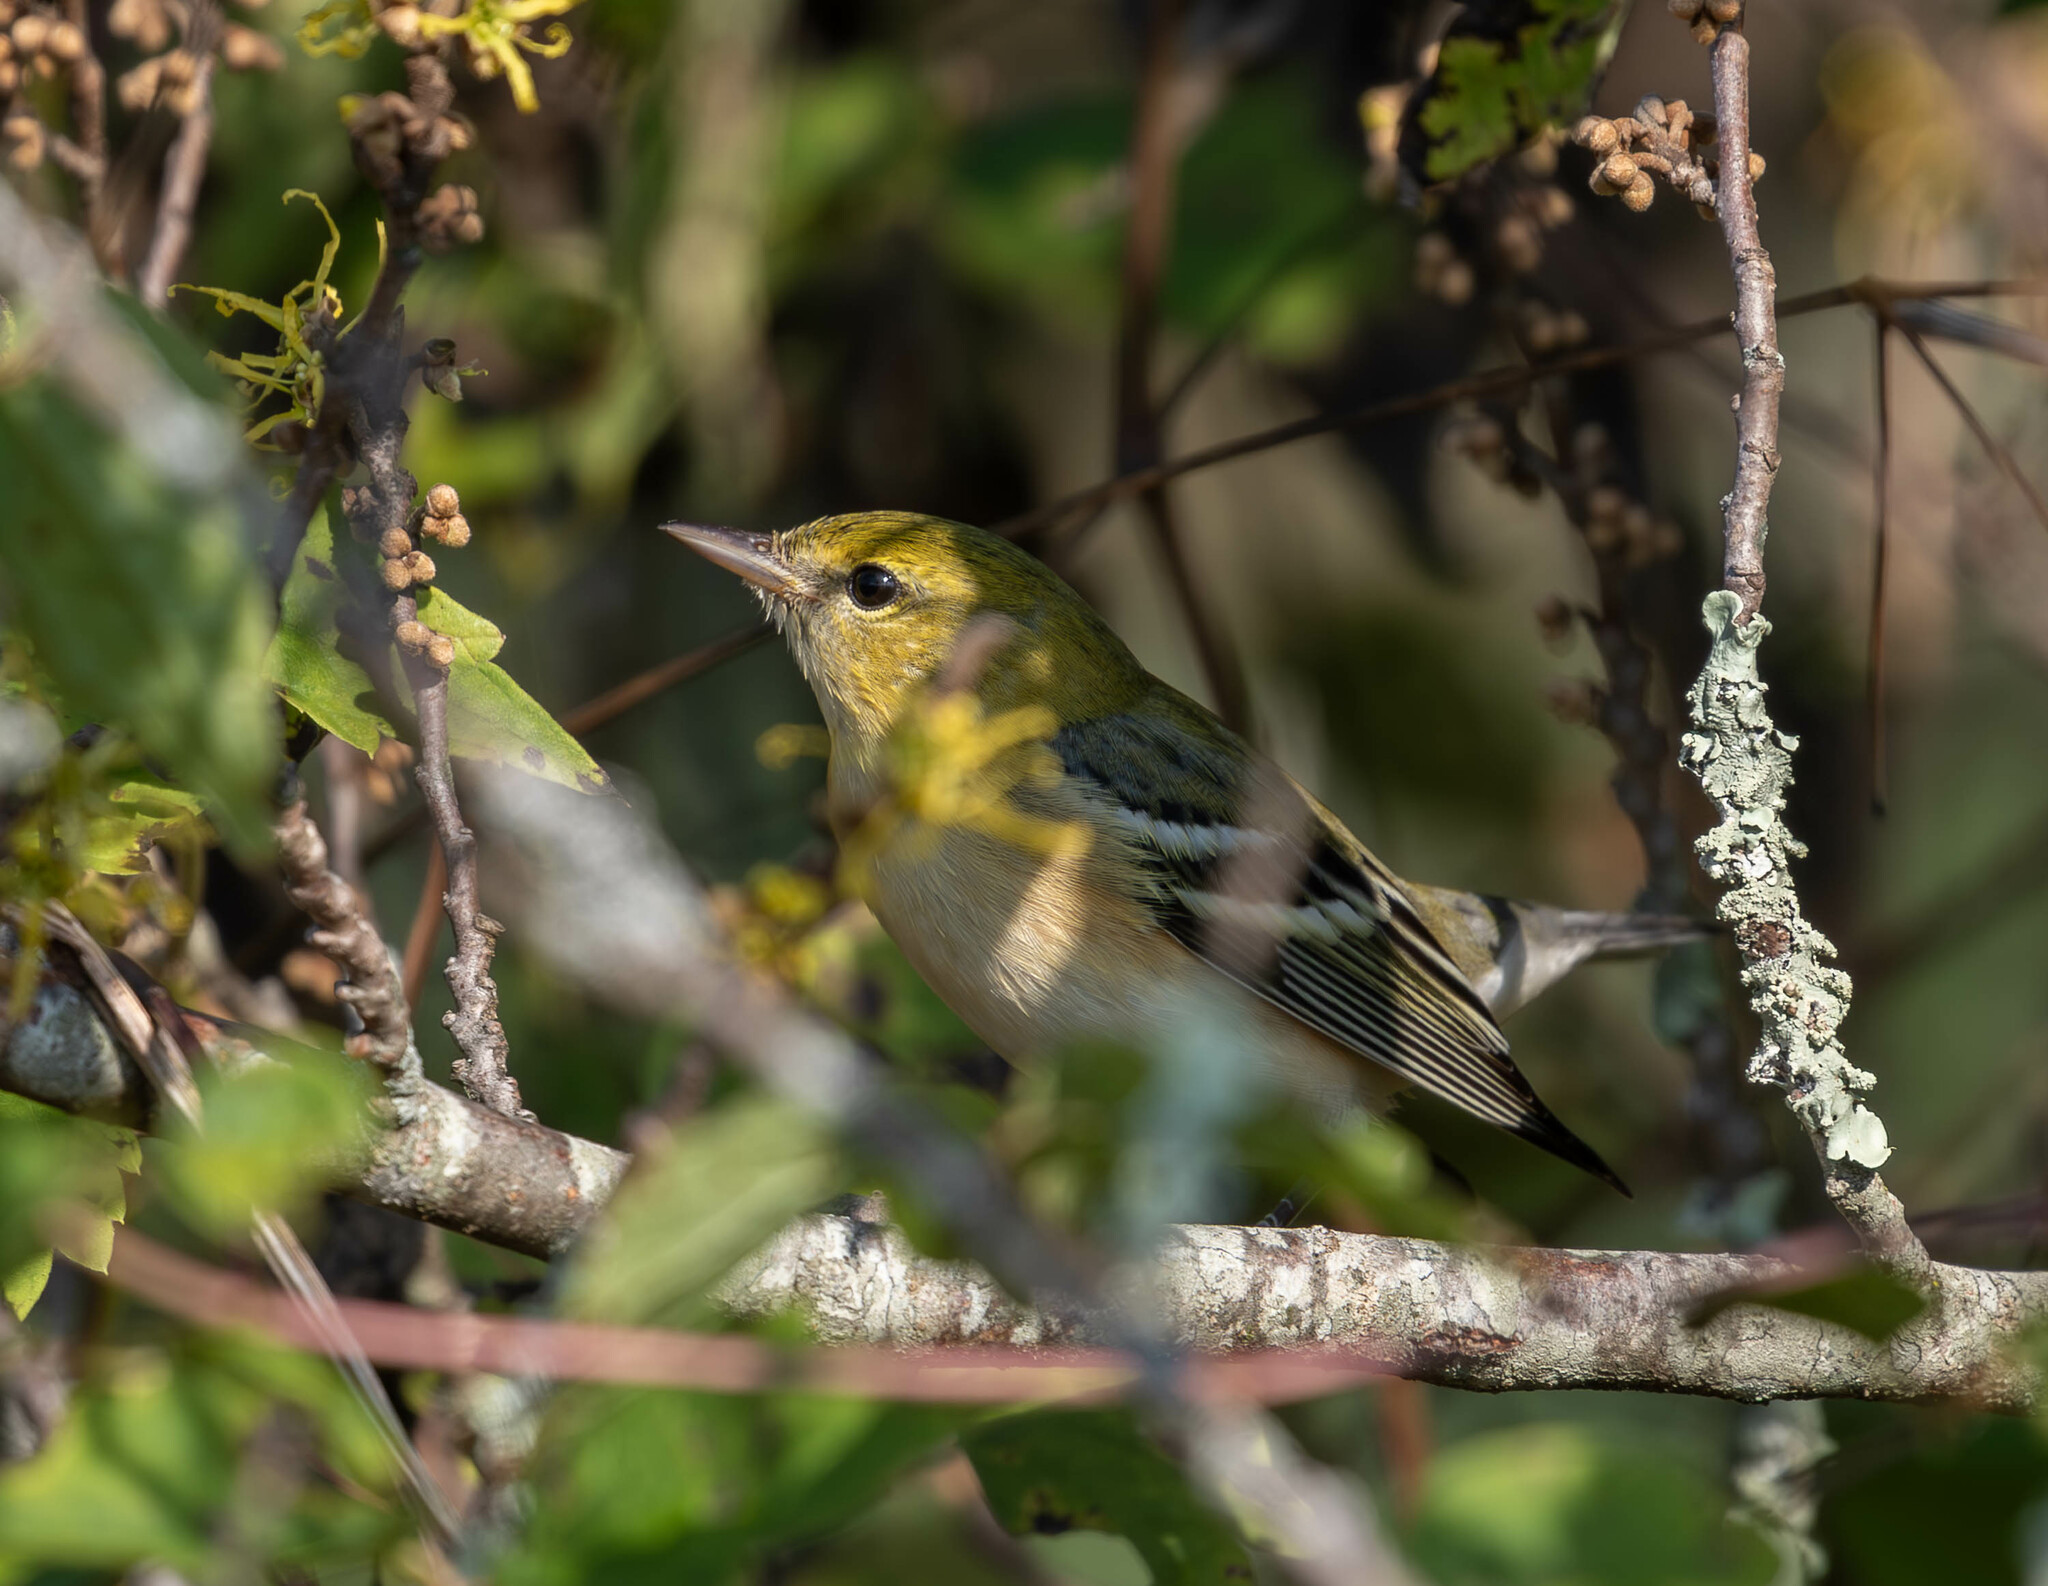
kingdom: Animalia
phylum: Chordata
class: Aves
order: Passeriformes
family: Parulidae
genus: Setophaga
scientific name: Setophaga castanea
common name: Bay-breasted warbler
